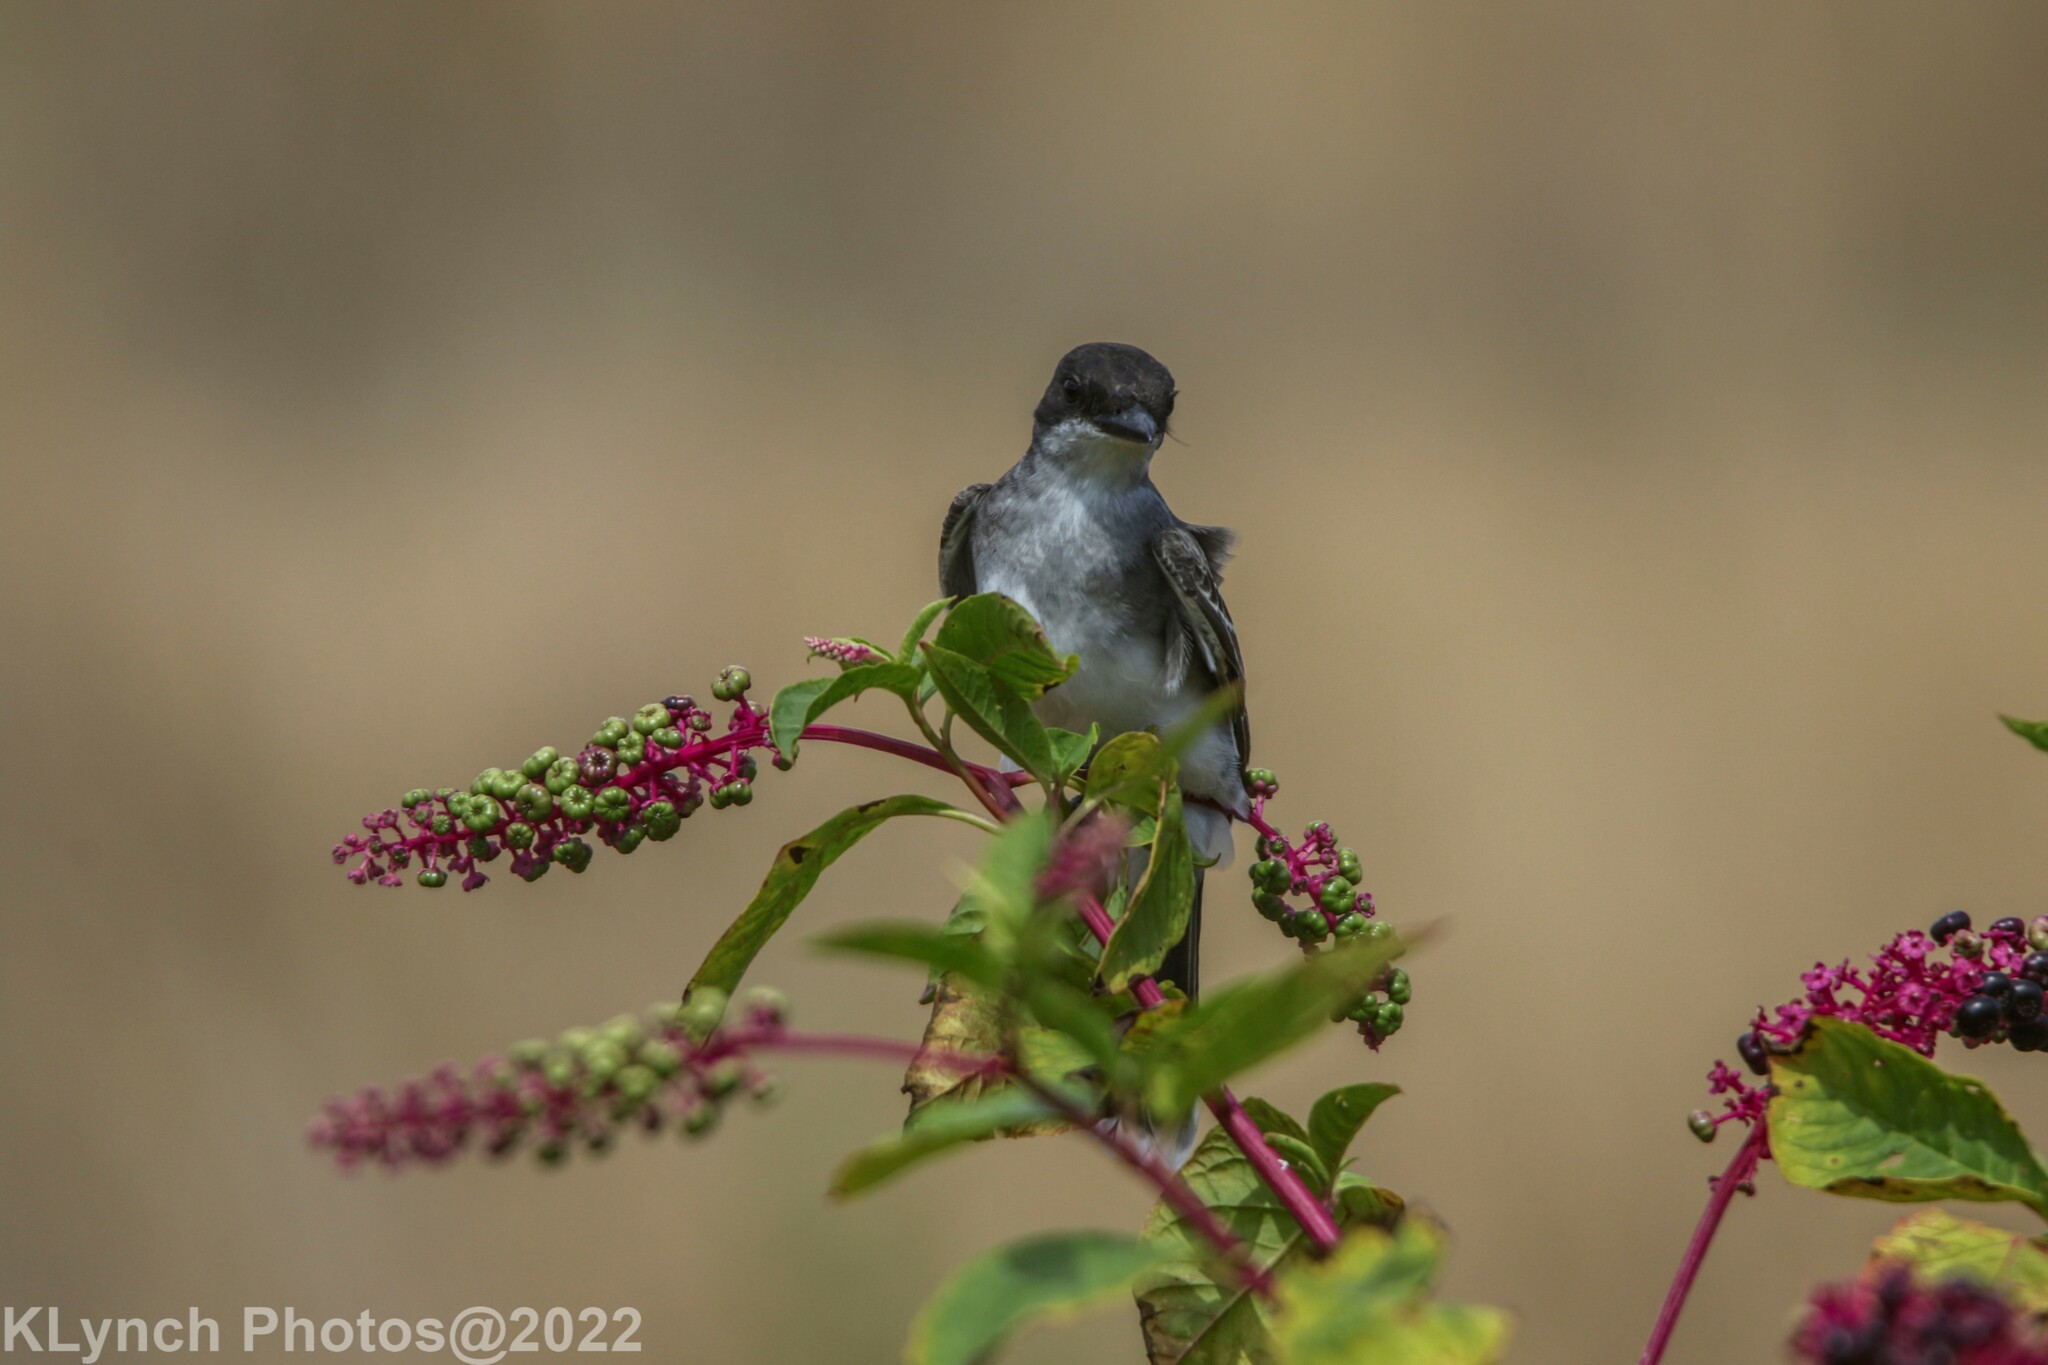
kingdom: Animalia
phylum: Chordata
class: Aves
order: Passeriformes
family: Tyrannidae
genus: Tyrannus
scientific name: Tyrannus tyrannus
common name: Eastern kingbird
